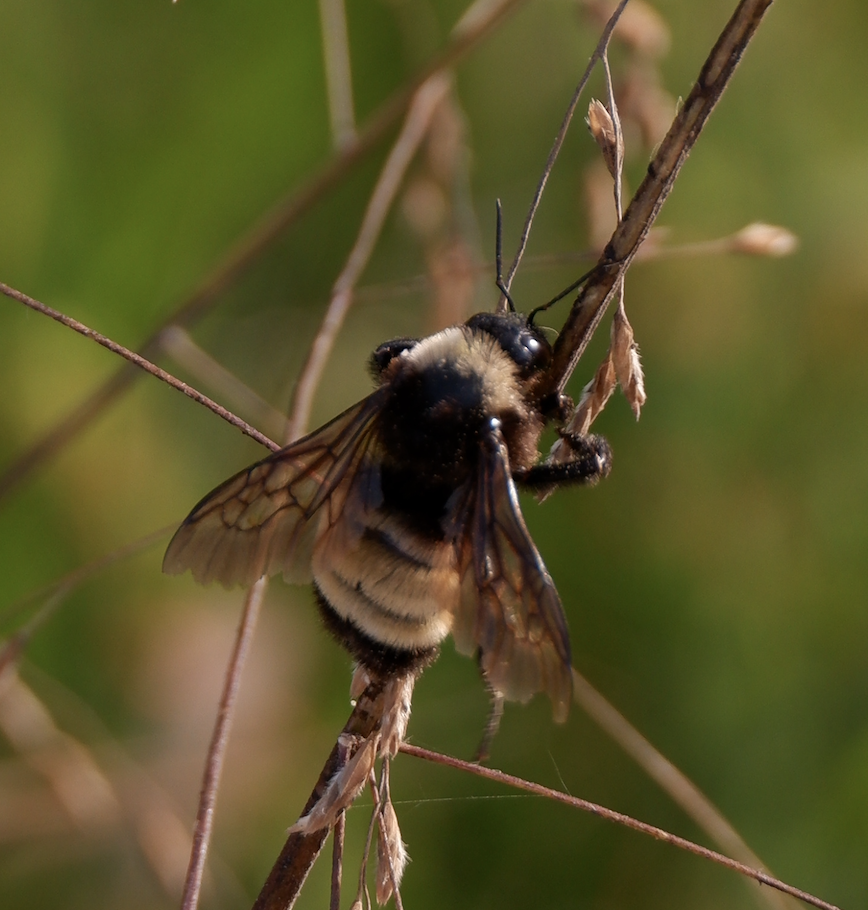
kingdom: Animalia
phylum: Arthropoda
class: Insecta
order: Hymenoptera
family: Apidae
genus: Bombus
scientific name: Bombus pensylvanicus
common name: Bumble bee
